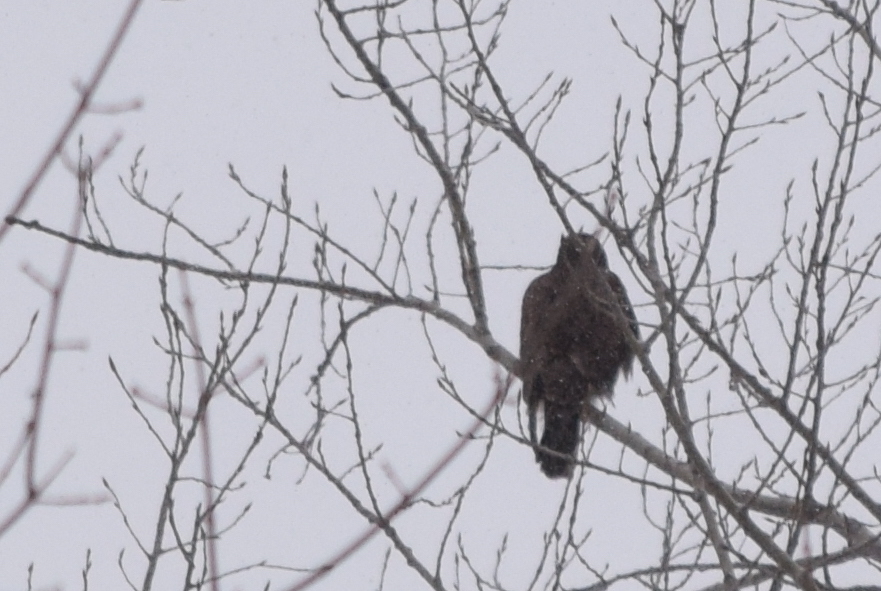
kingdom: Animalia
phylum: Chordata
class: Aves
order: Accipitriformes
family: Accipitridae
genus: Buteo
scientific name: Buteo lagopus
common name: Rough-legged buzzard
